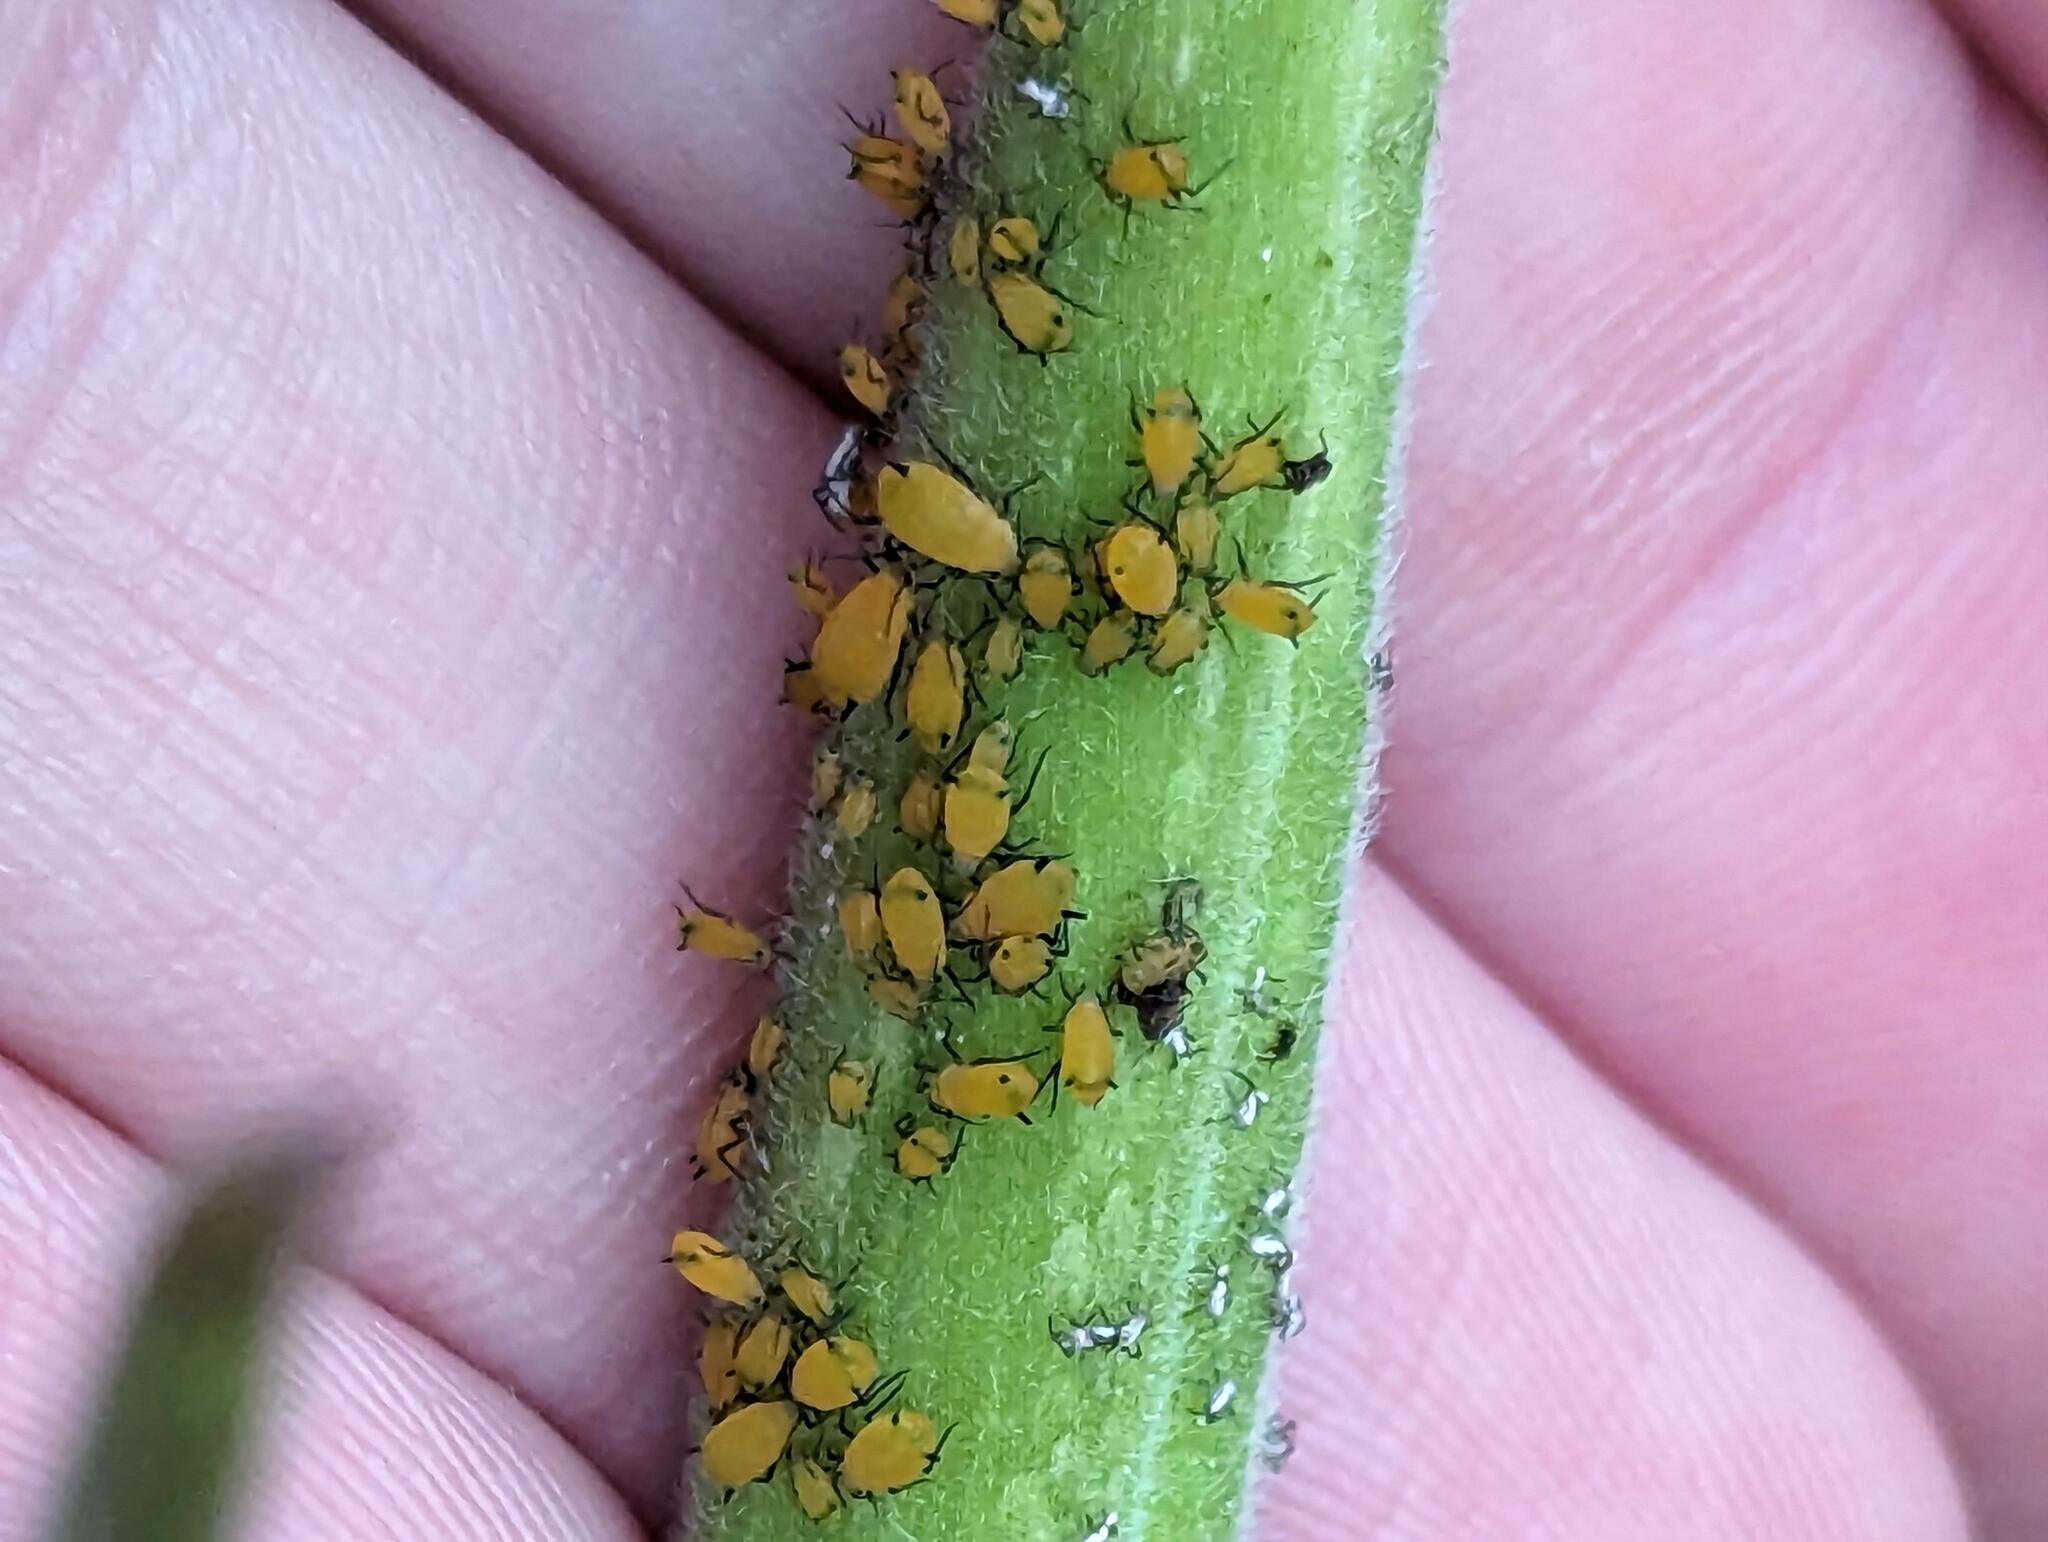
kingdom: Animalia
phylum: Arthropoda
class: Insecta
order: Hemiptera
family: Aphididae
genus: Aphis
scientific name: Aphis nerii
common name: Oleander aphid
